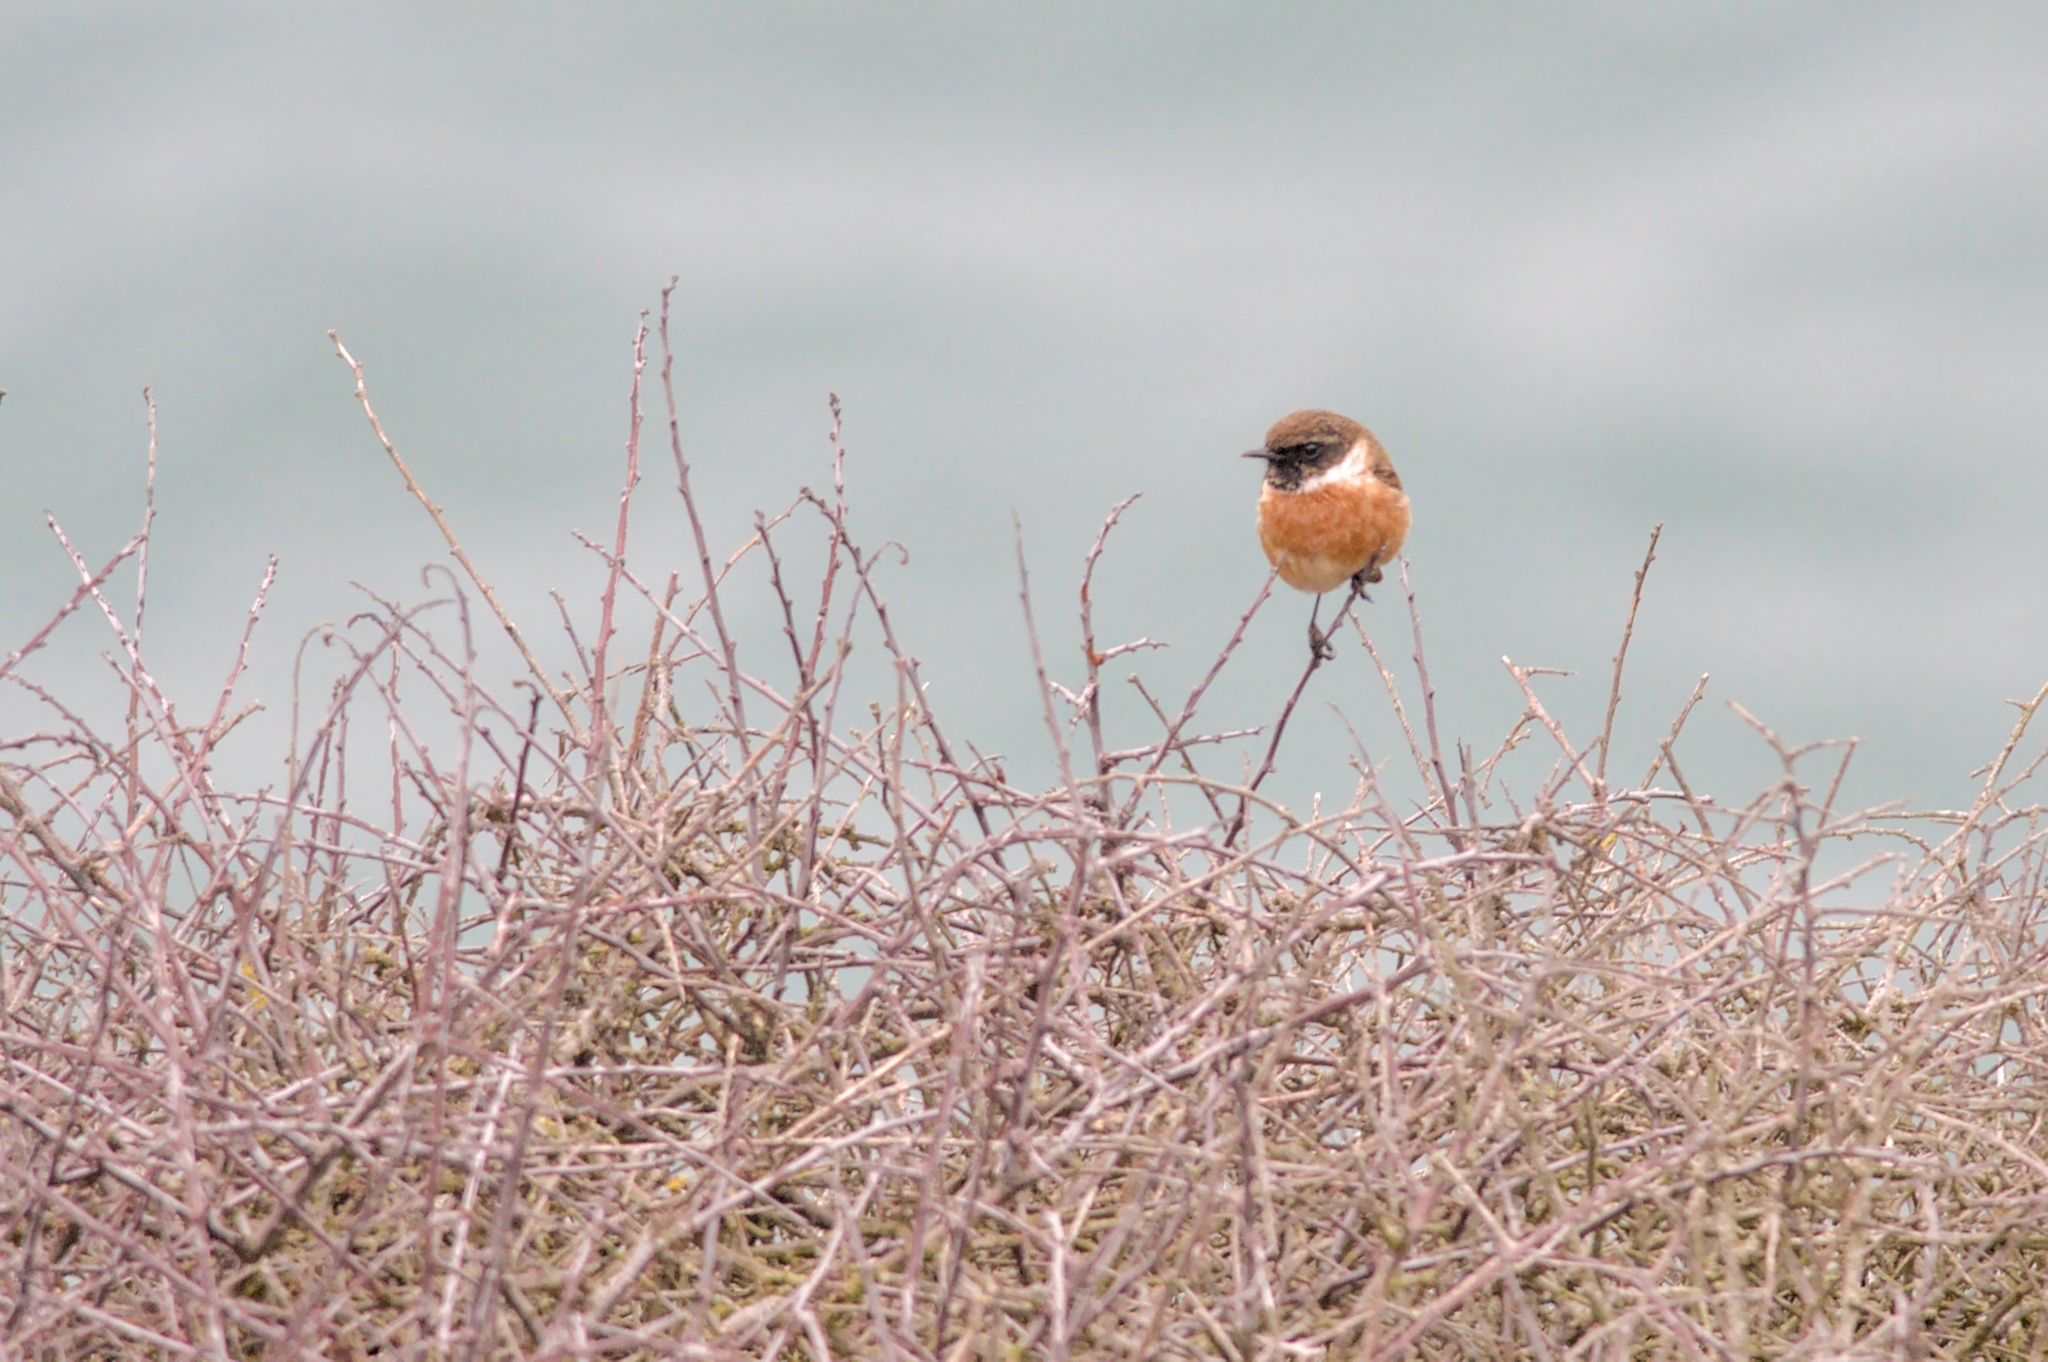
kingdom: Animalia
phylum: Chordata
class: Aves
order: Passeriformes
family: Muscicapidae
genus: Saxicola
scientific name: Saxicola rubicola
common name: European stonechat
